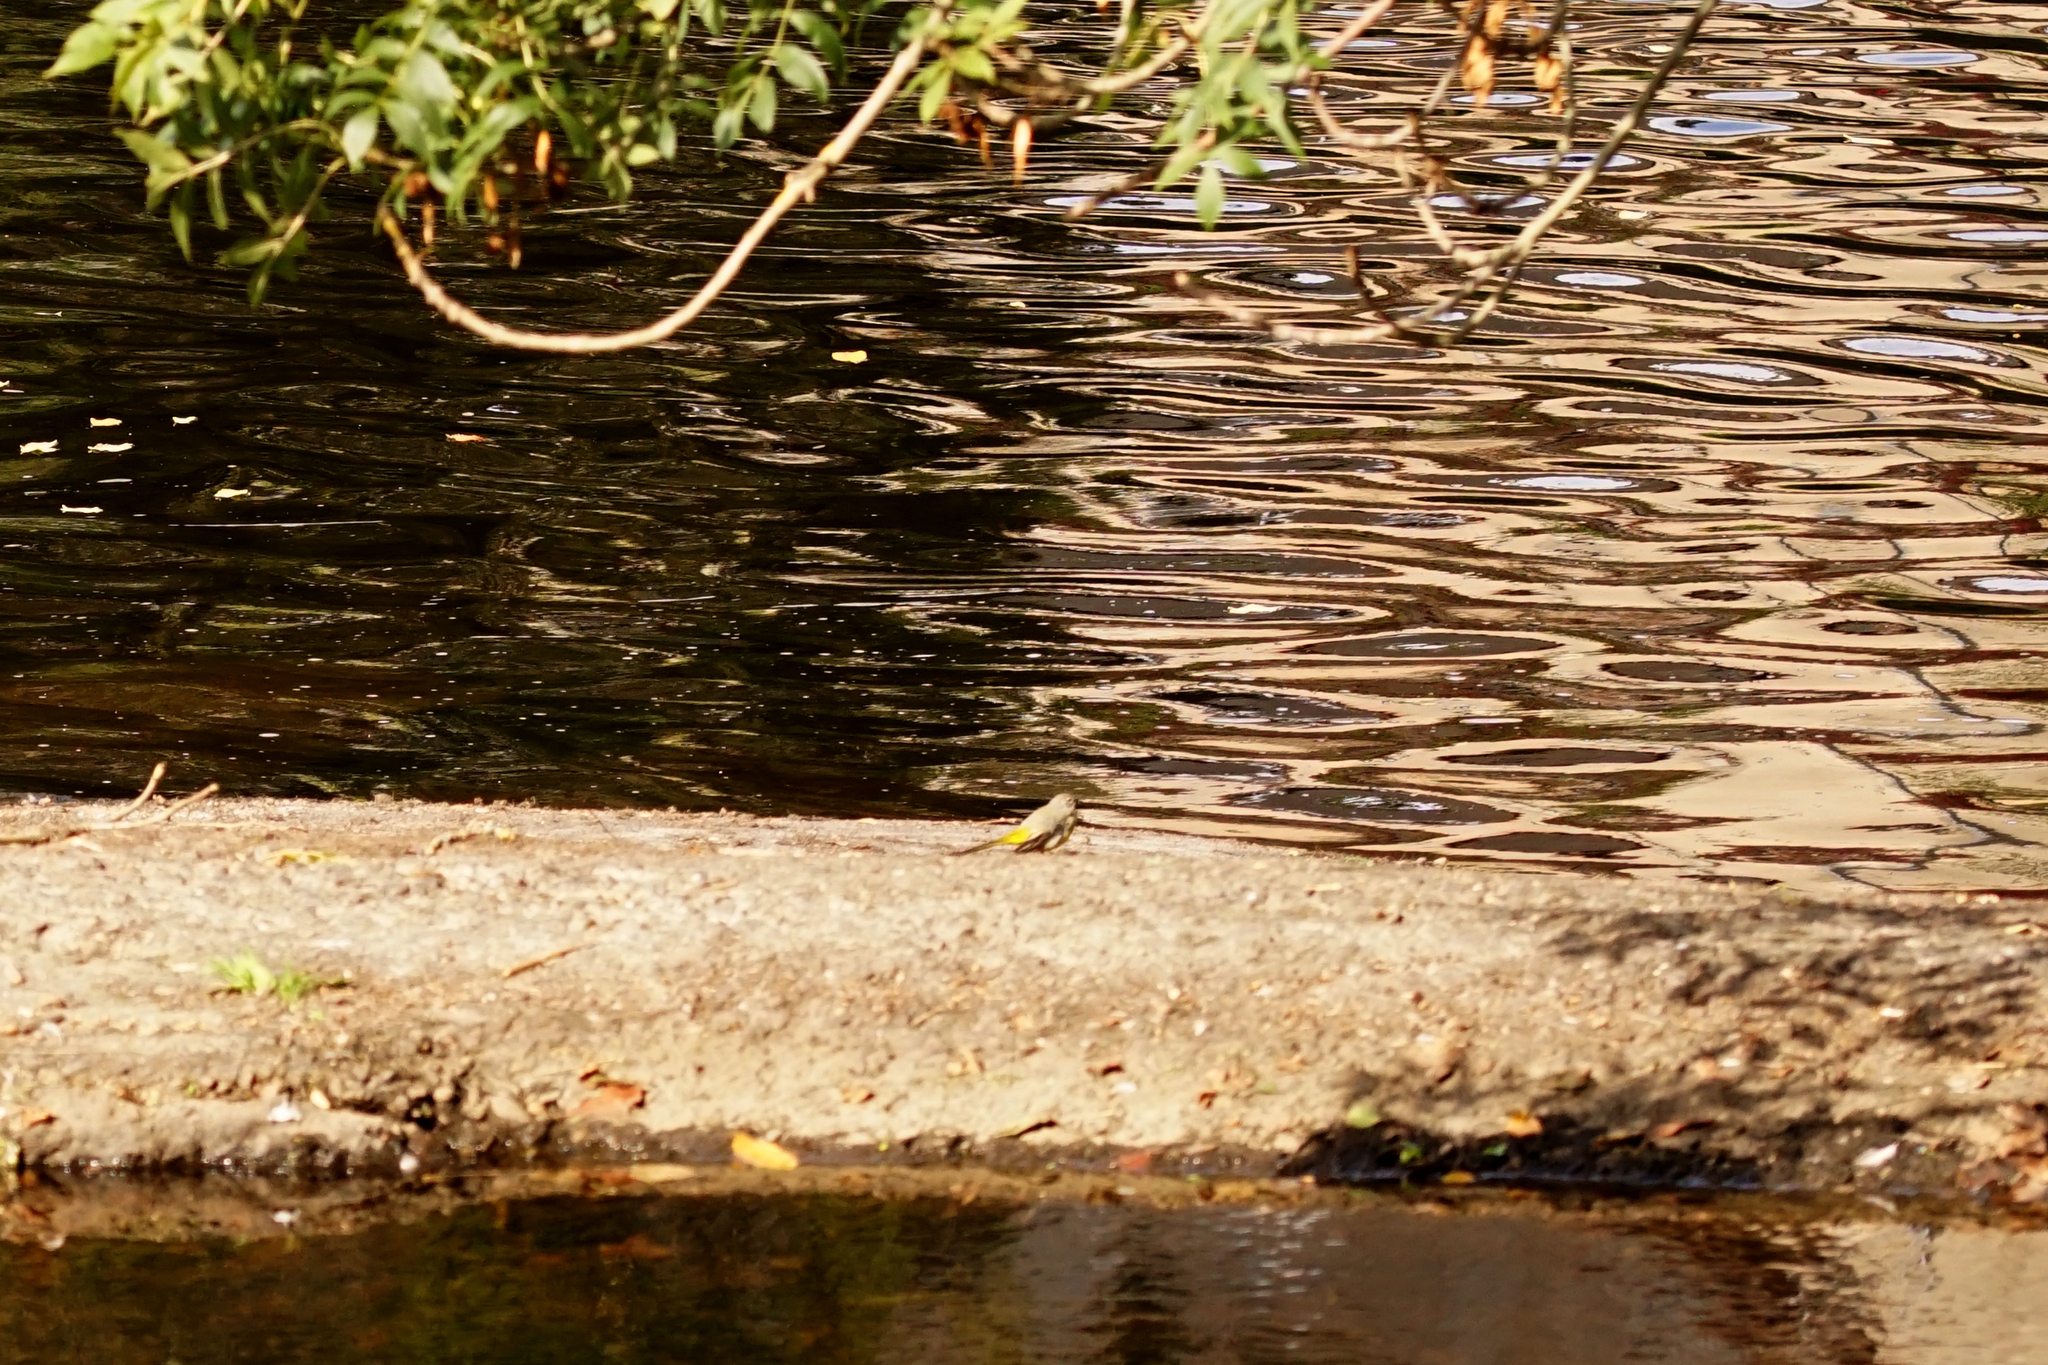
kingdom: Animalia
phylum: Chordata
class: Aves
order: Passeriformes
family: Motacillidae
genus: Motacilla
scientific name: Motacilla cinerea
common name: Grey wagtail
